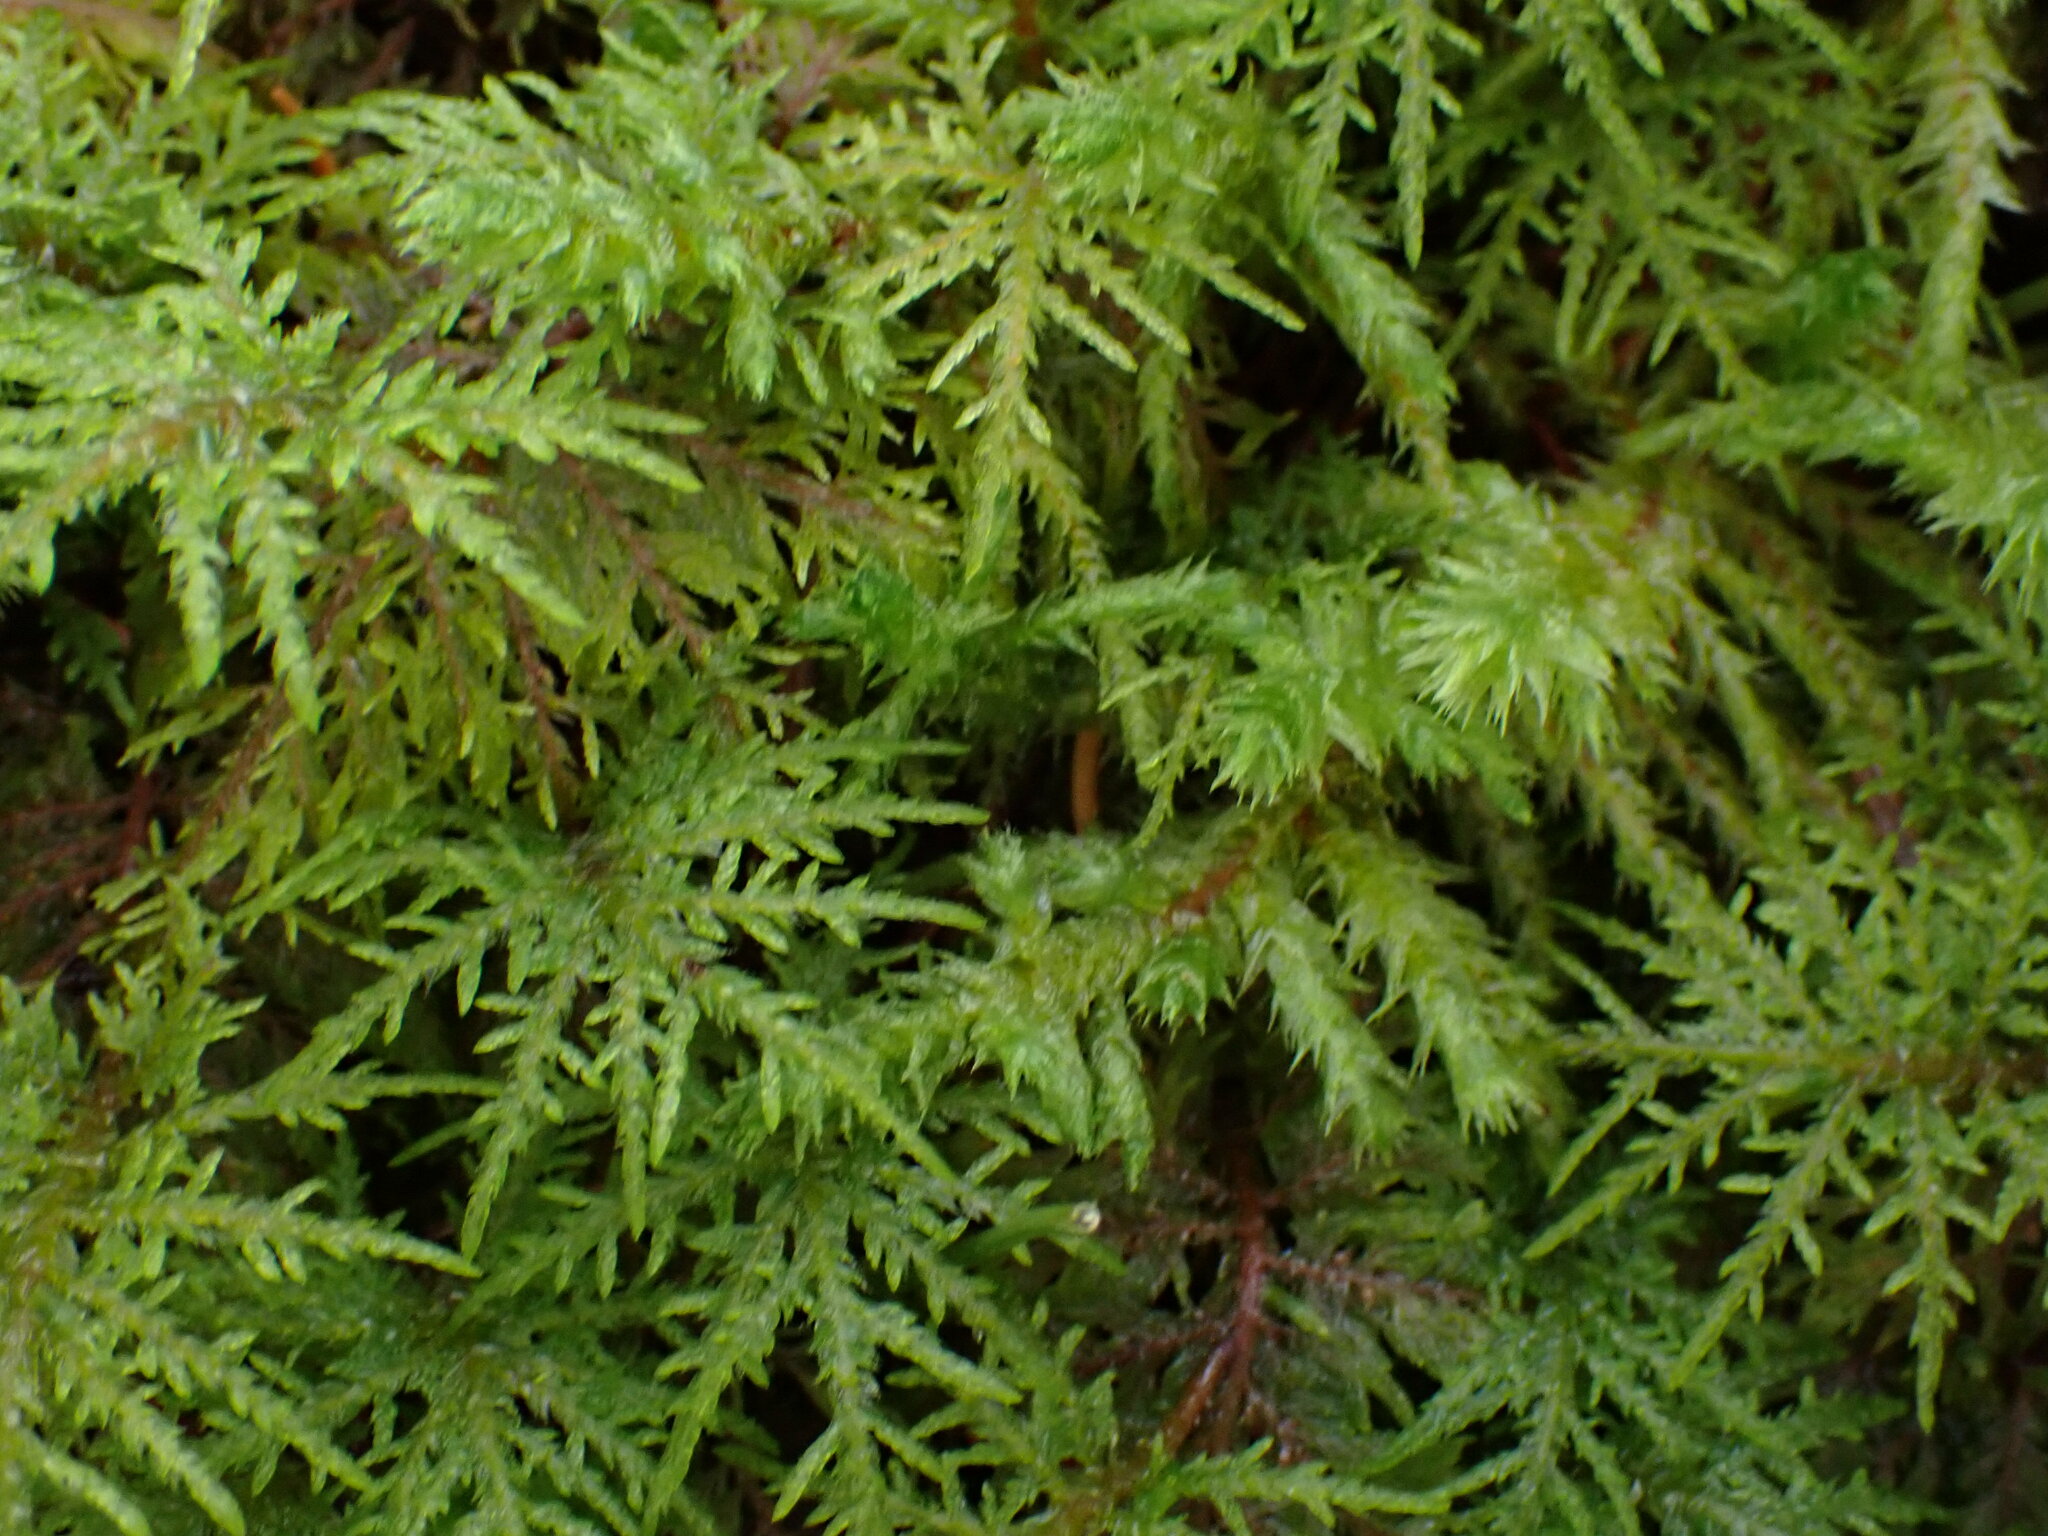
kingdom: Plantae
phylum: Bryophyta
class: Bryopsida
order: Hypnales
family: Hylocomiaceae
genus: Hylocomium
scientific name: Hylocomium splendens
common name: Stairstep moss
